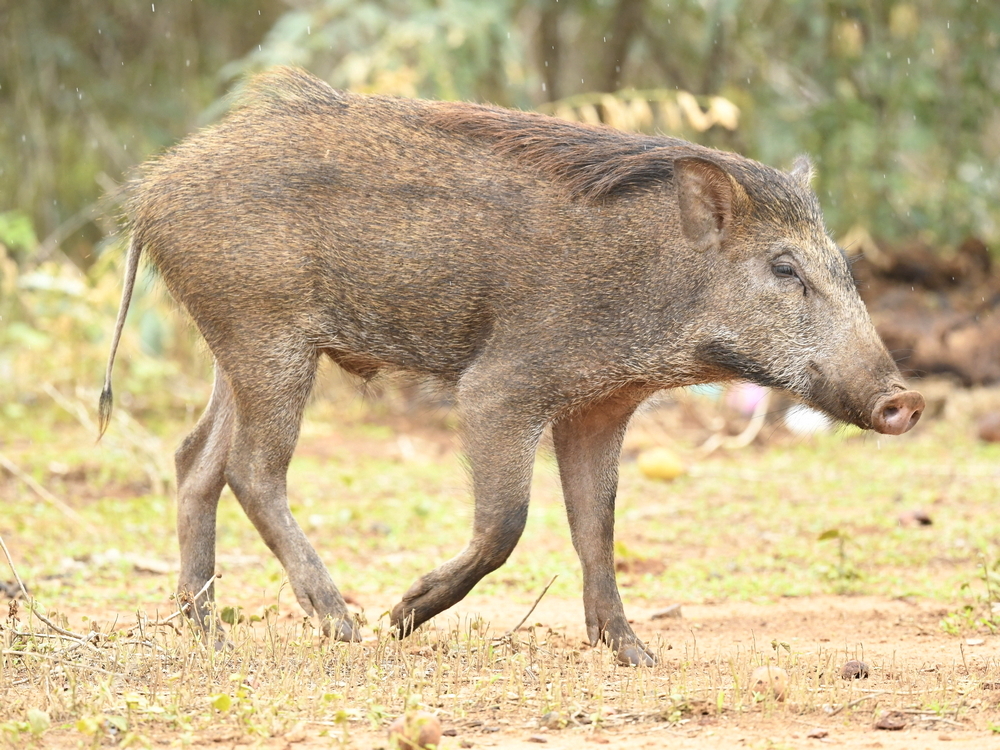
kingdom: Animalia
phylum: Chordata
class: Mammalia
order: Artiodactyla
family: Suidae
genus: Sus
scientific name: Sus scrofa
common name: Wild boar
